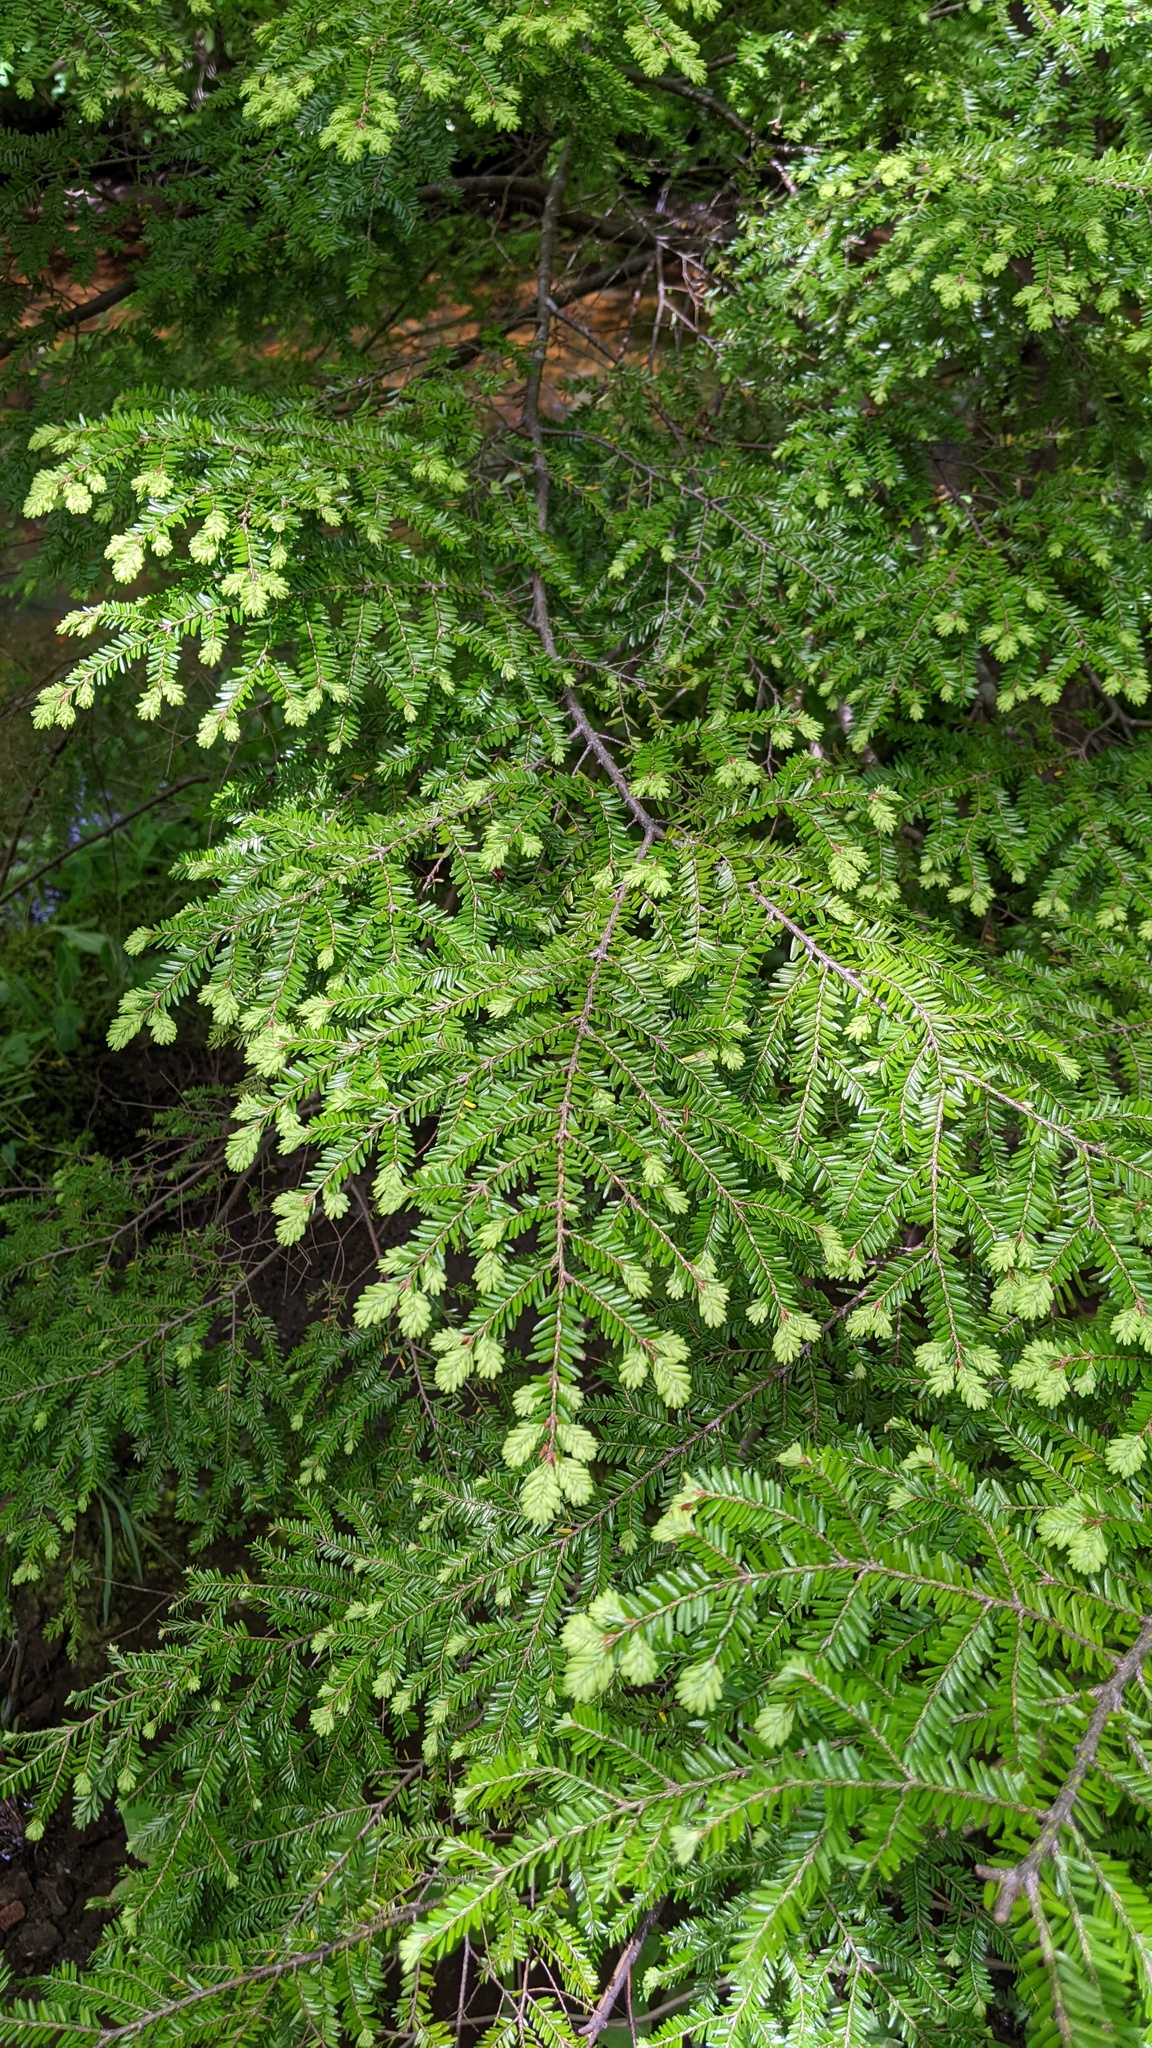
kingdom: Plantae
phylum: Tracheophyta
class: Pinopsida
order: Pinales
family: Pinaceae
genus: Tsuga
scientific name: Tsuga canadensis
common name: Eastern hemlock
